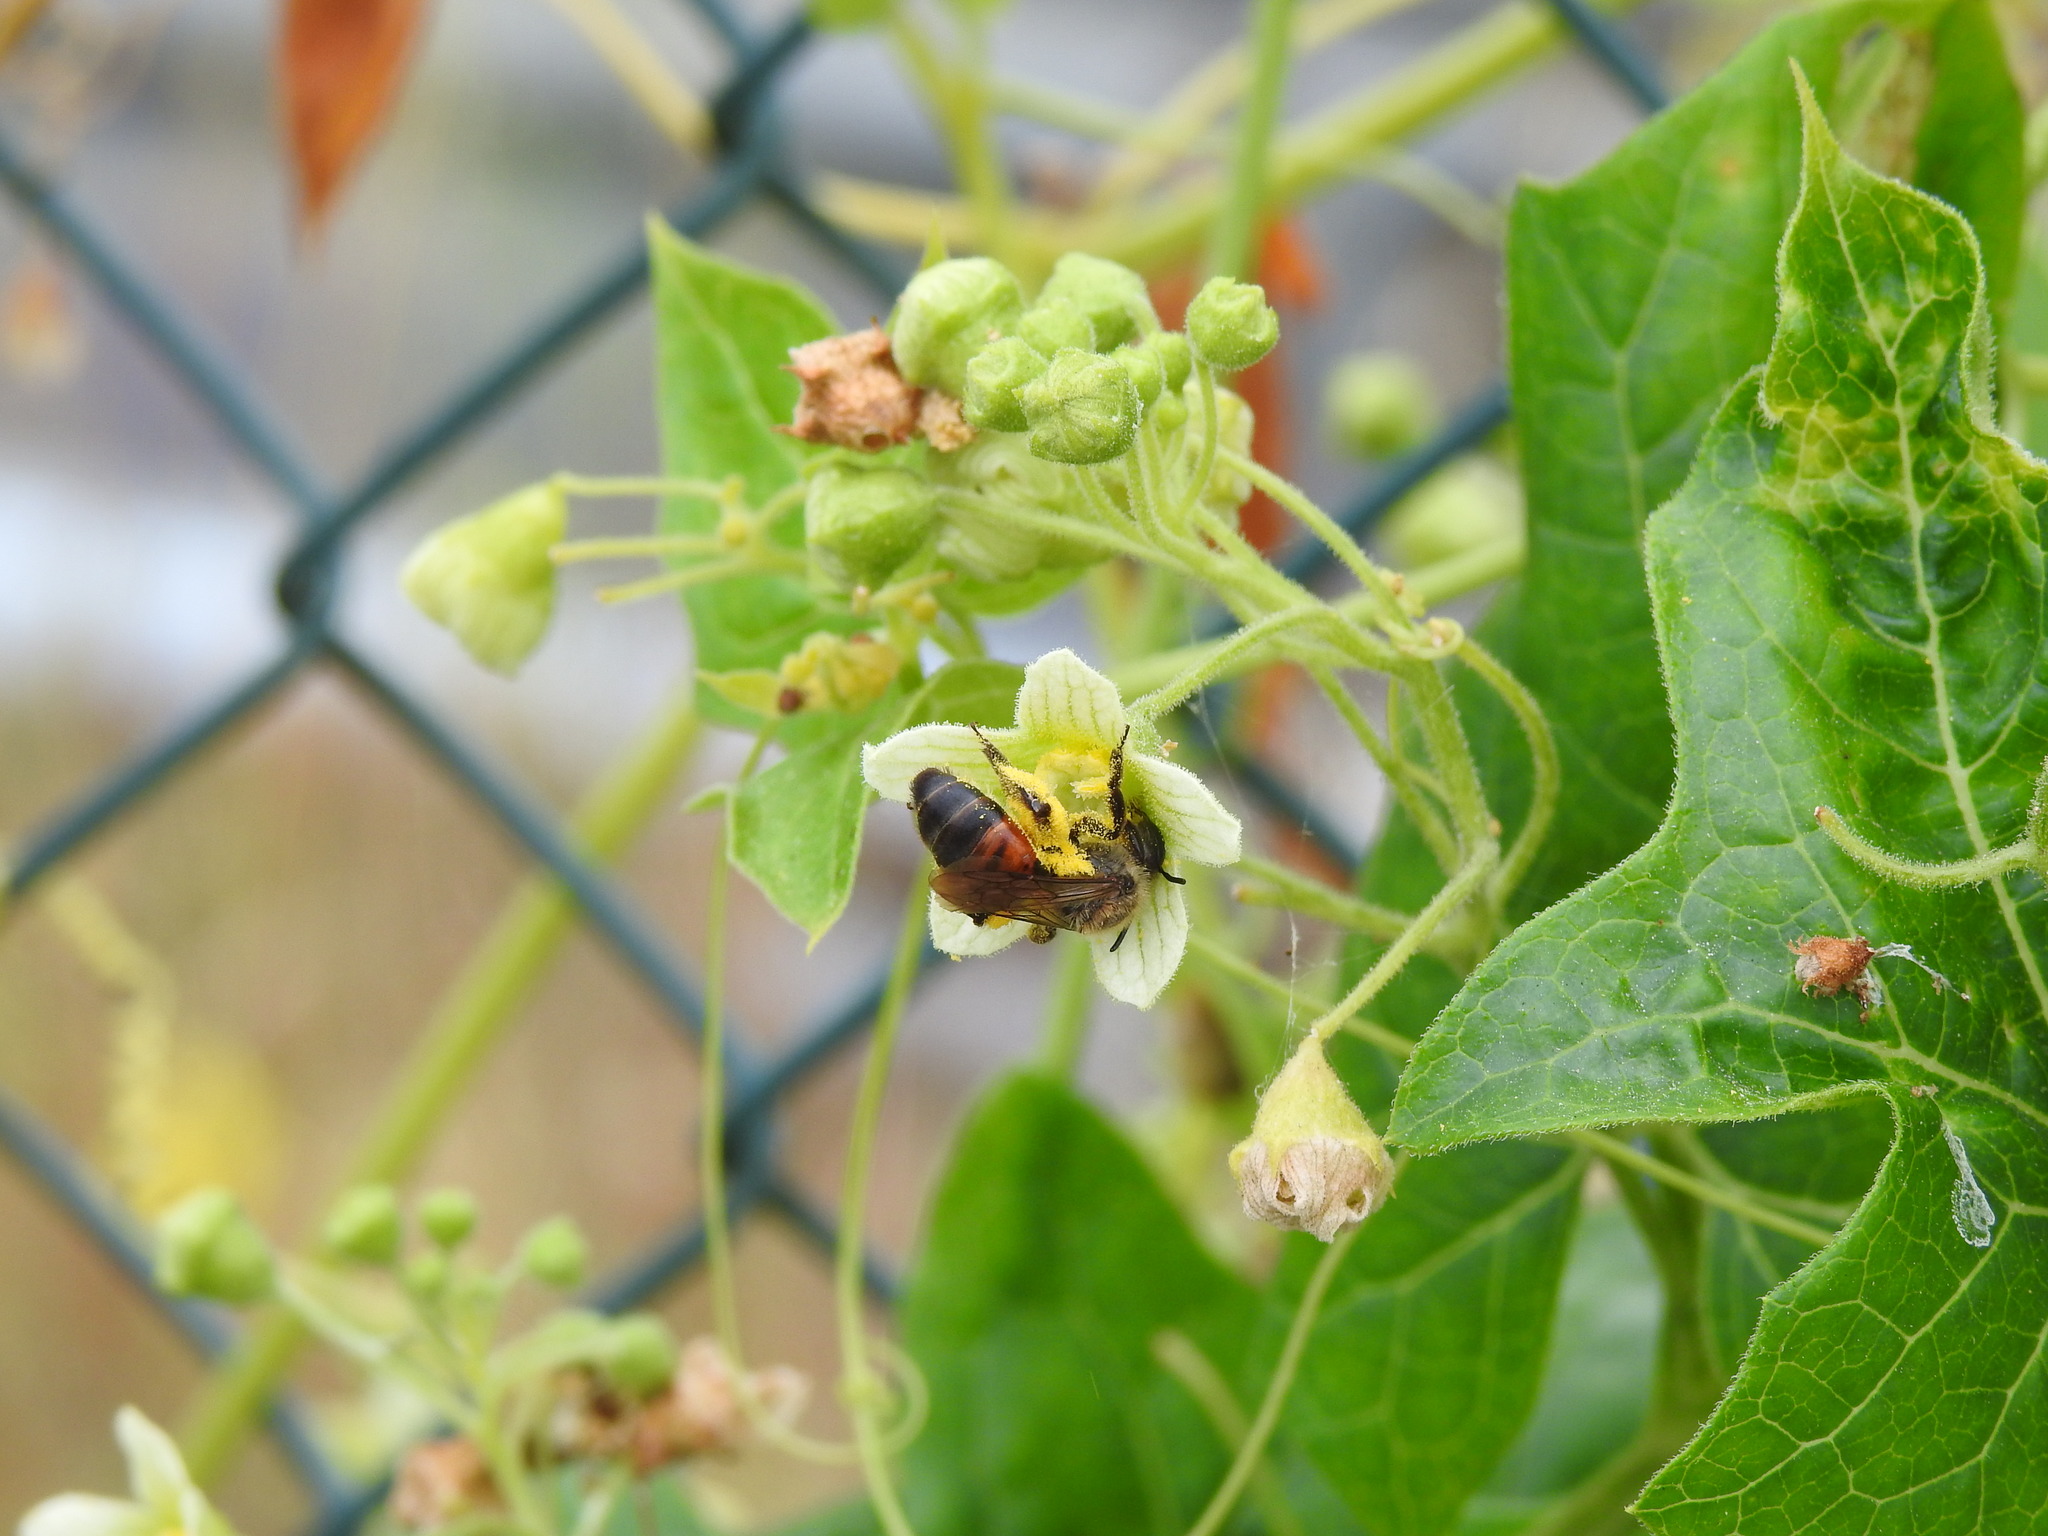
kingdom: Animalia
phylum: Arthropoda
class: Insecta
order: Hymenoptera
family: Andrenidae
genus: Andrena
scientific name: Andrena florea
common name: Bryony mining bee
